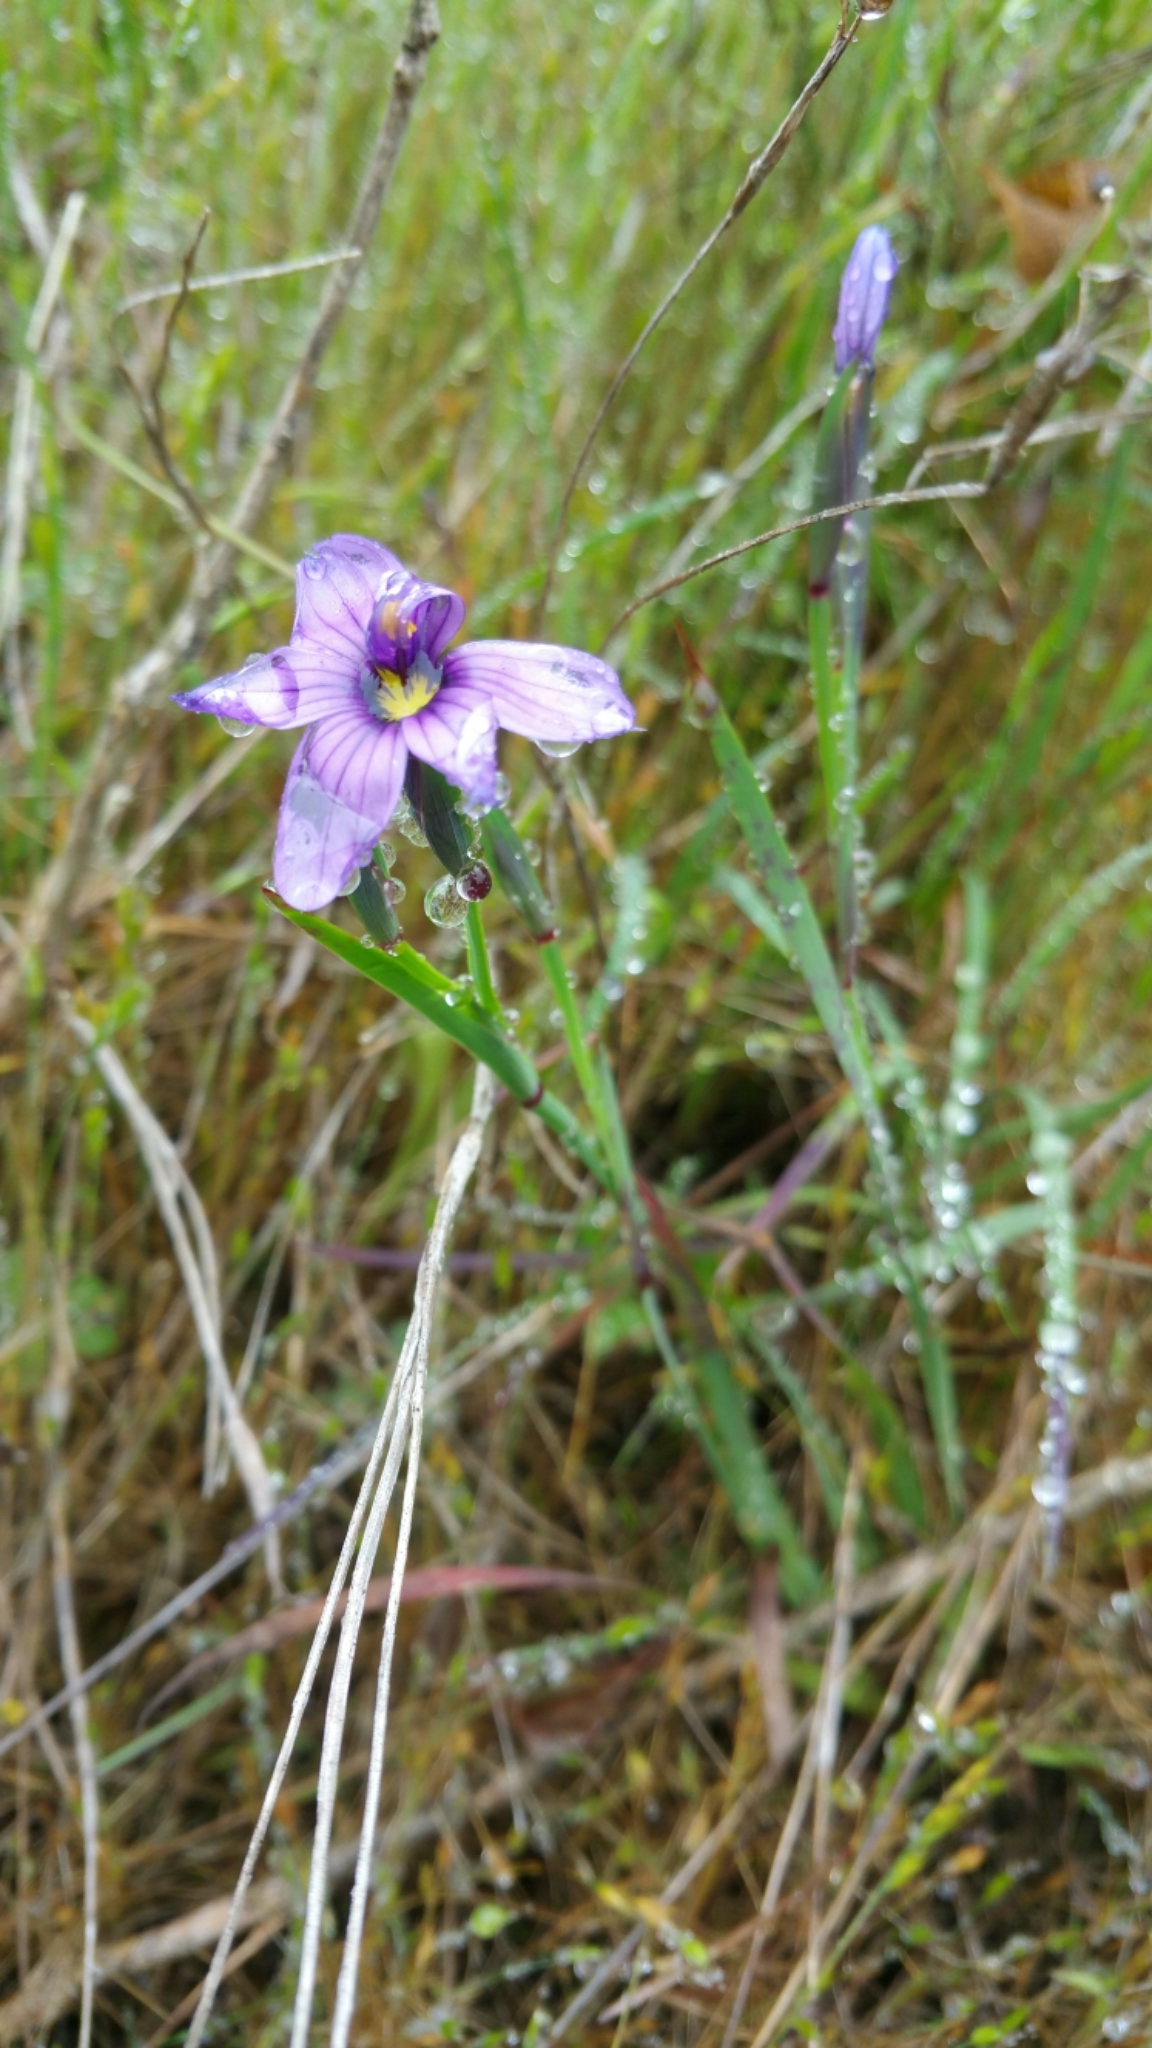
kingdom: Plantae
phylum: Tracheophyta
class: Liliopsida
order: Asparagales
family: Iridaceae
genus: Sisyrinchium
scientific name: Sisyrinchium bellum
